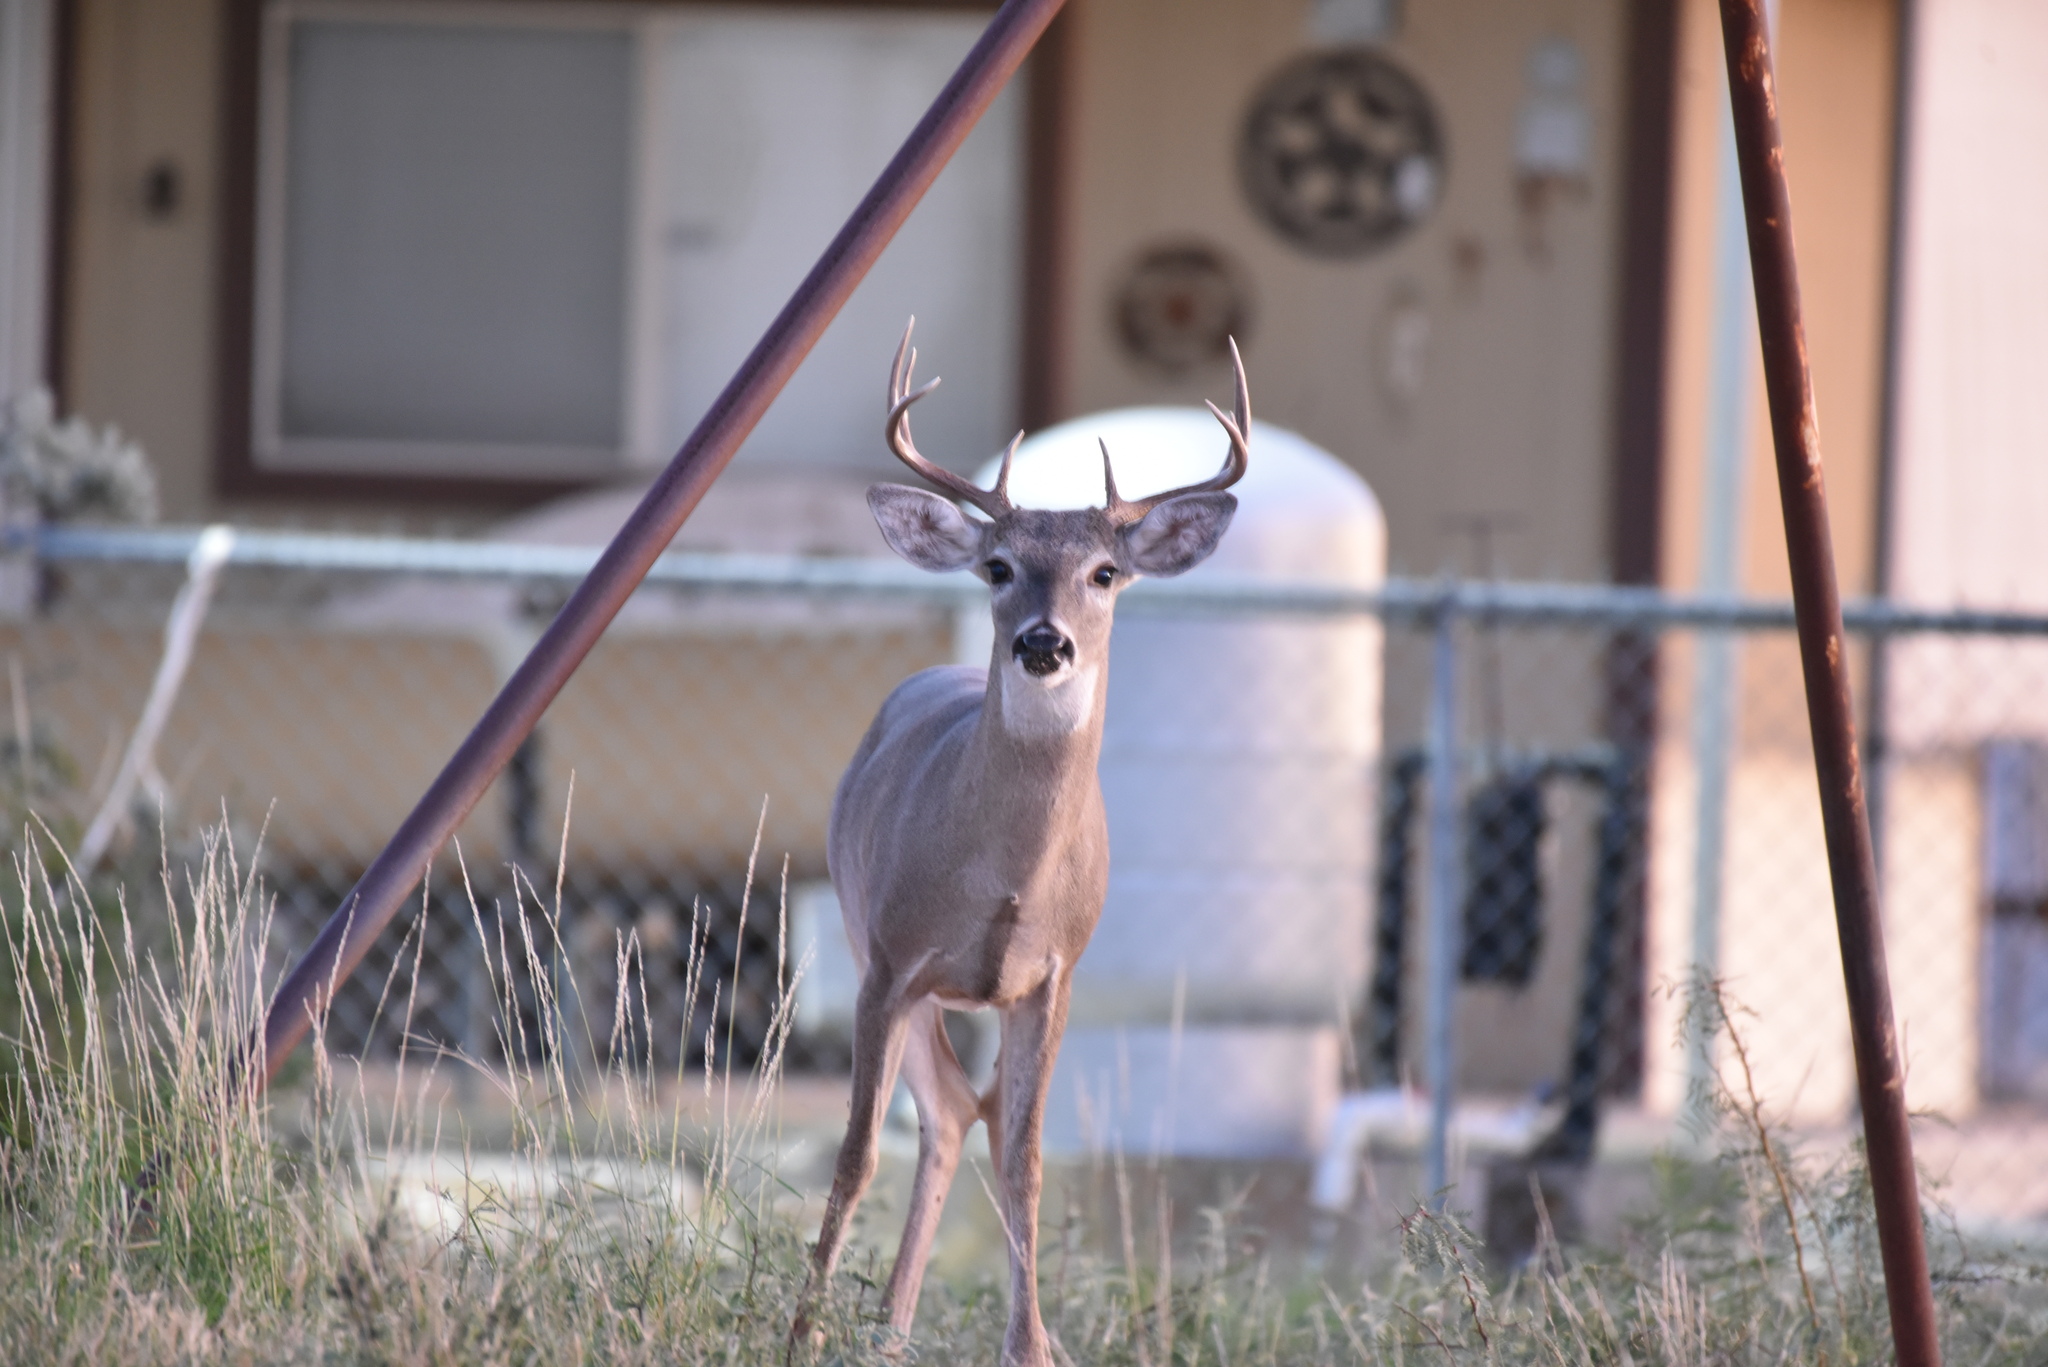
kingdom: Animalia
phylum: Chordata
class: Mammalia
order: Artiodactyla
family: Cervidae
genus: Odocoileus
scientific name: Odocoileus virginianus
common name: White-tailed deer
